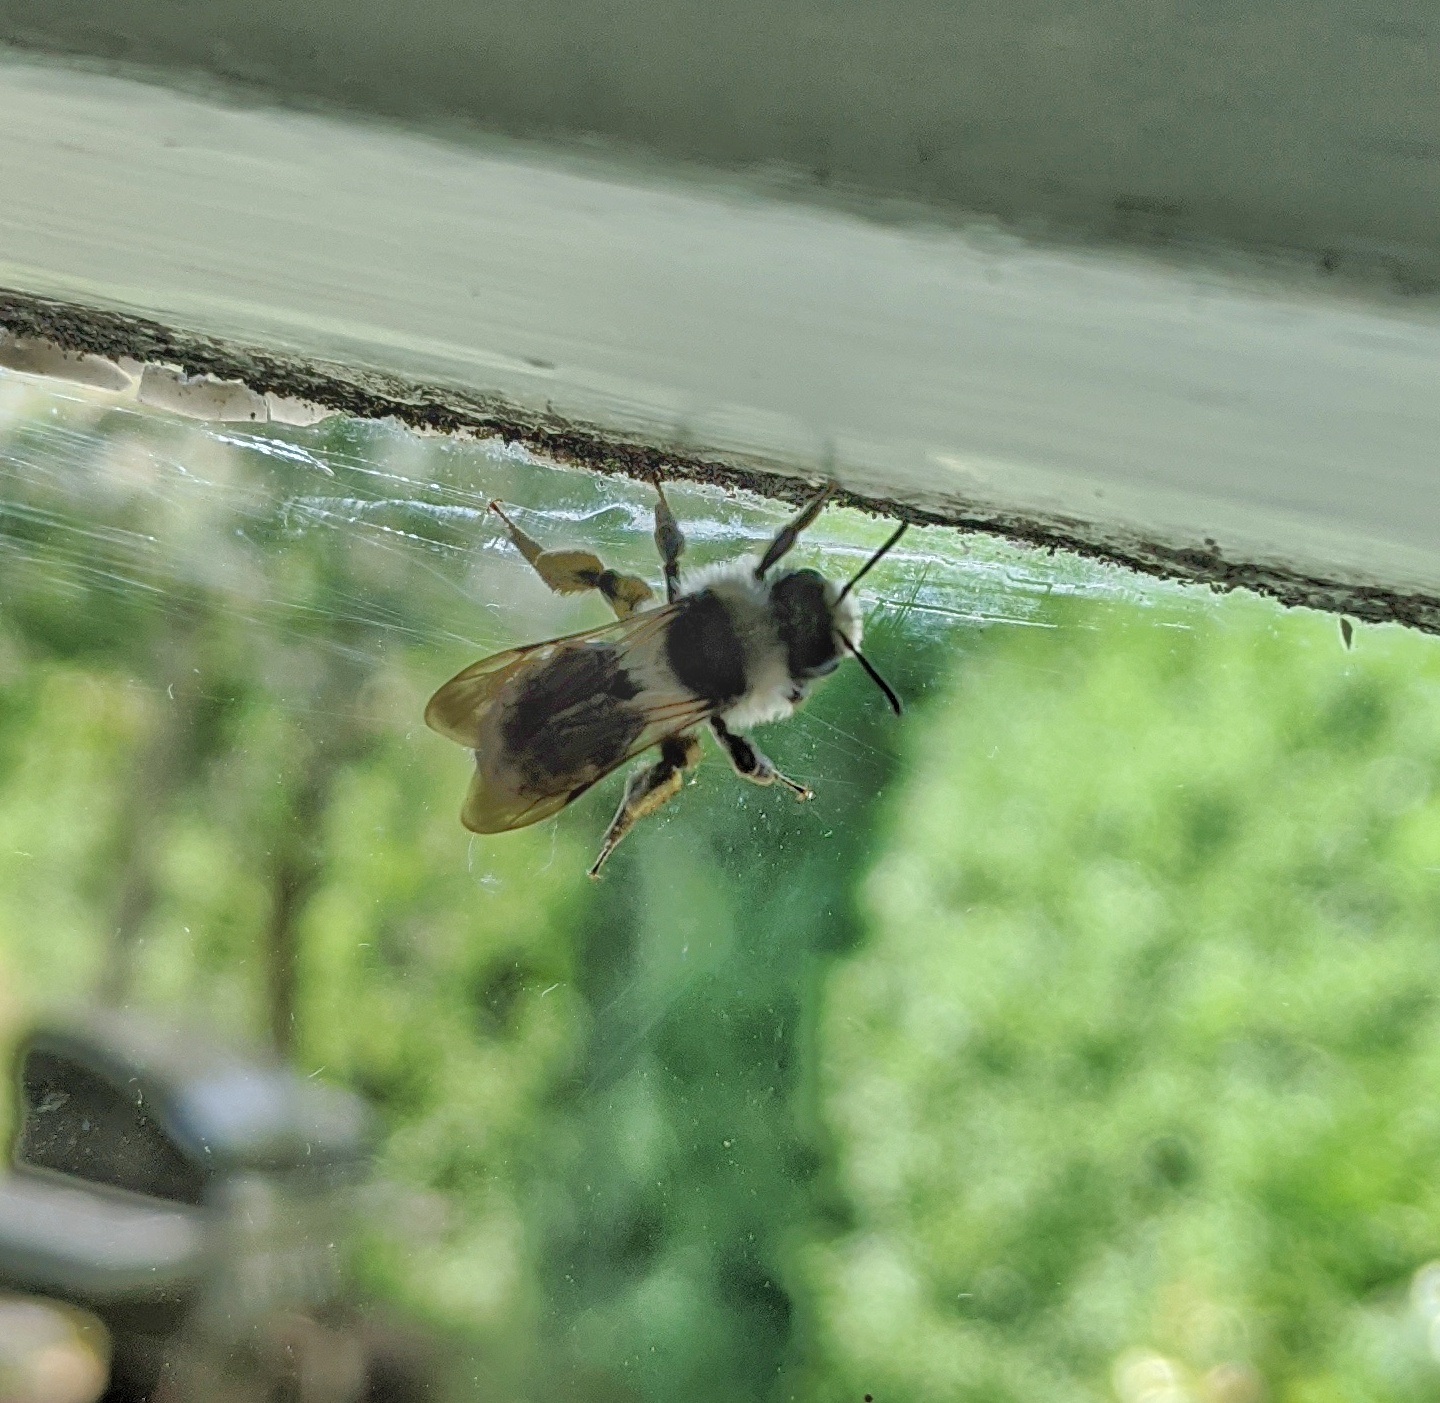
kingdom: Animalia
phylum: Arthropoda
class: Insecta
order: Hymenoptera
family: Andrenidae
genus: Andrena
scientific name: Andrena cineraria
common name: Ashy mining bee
